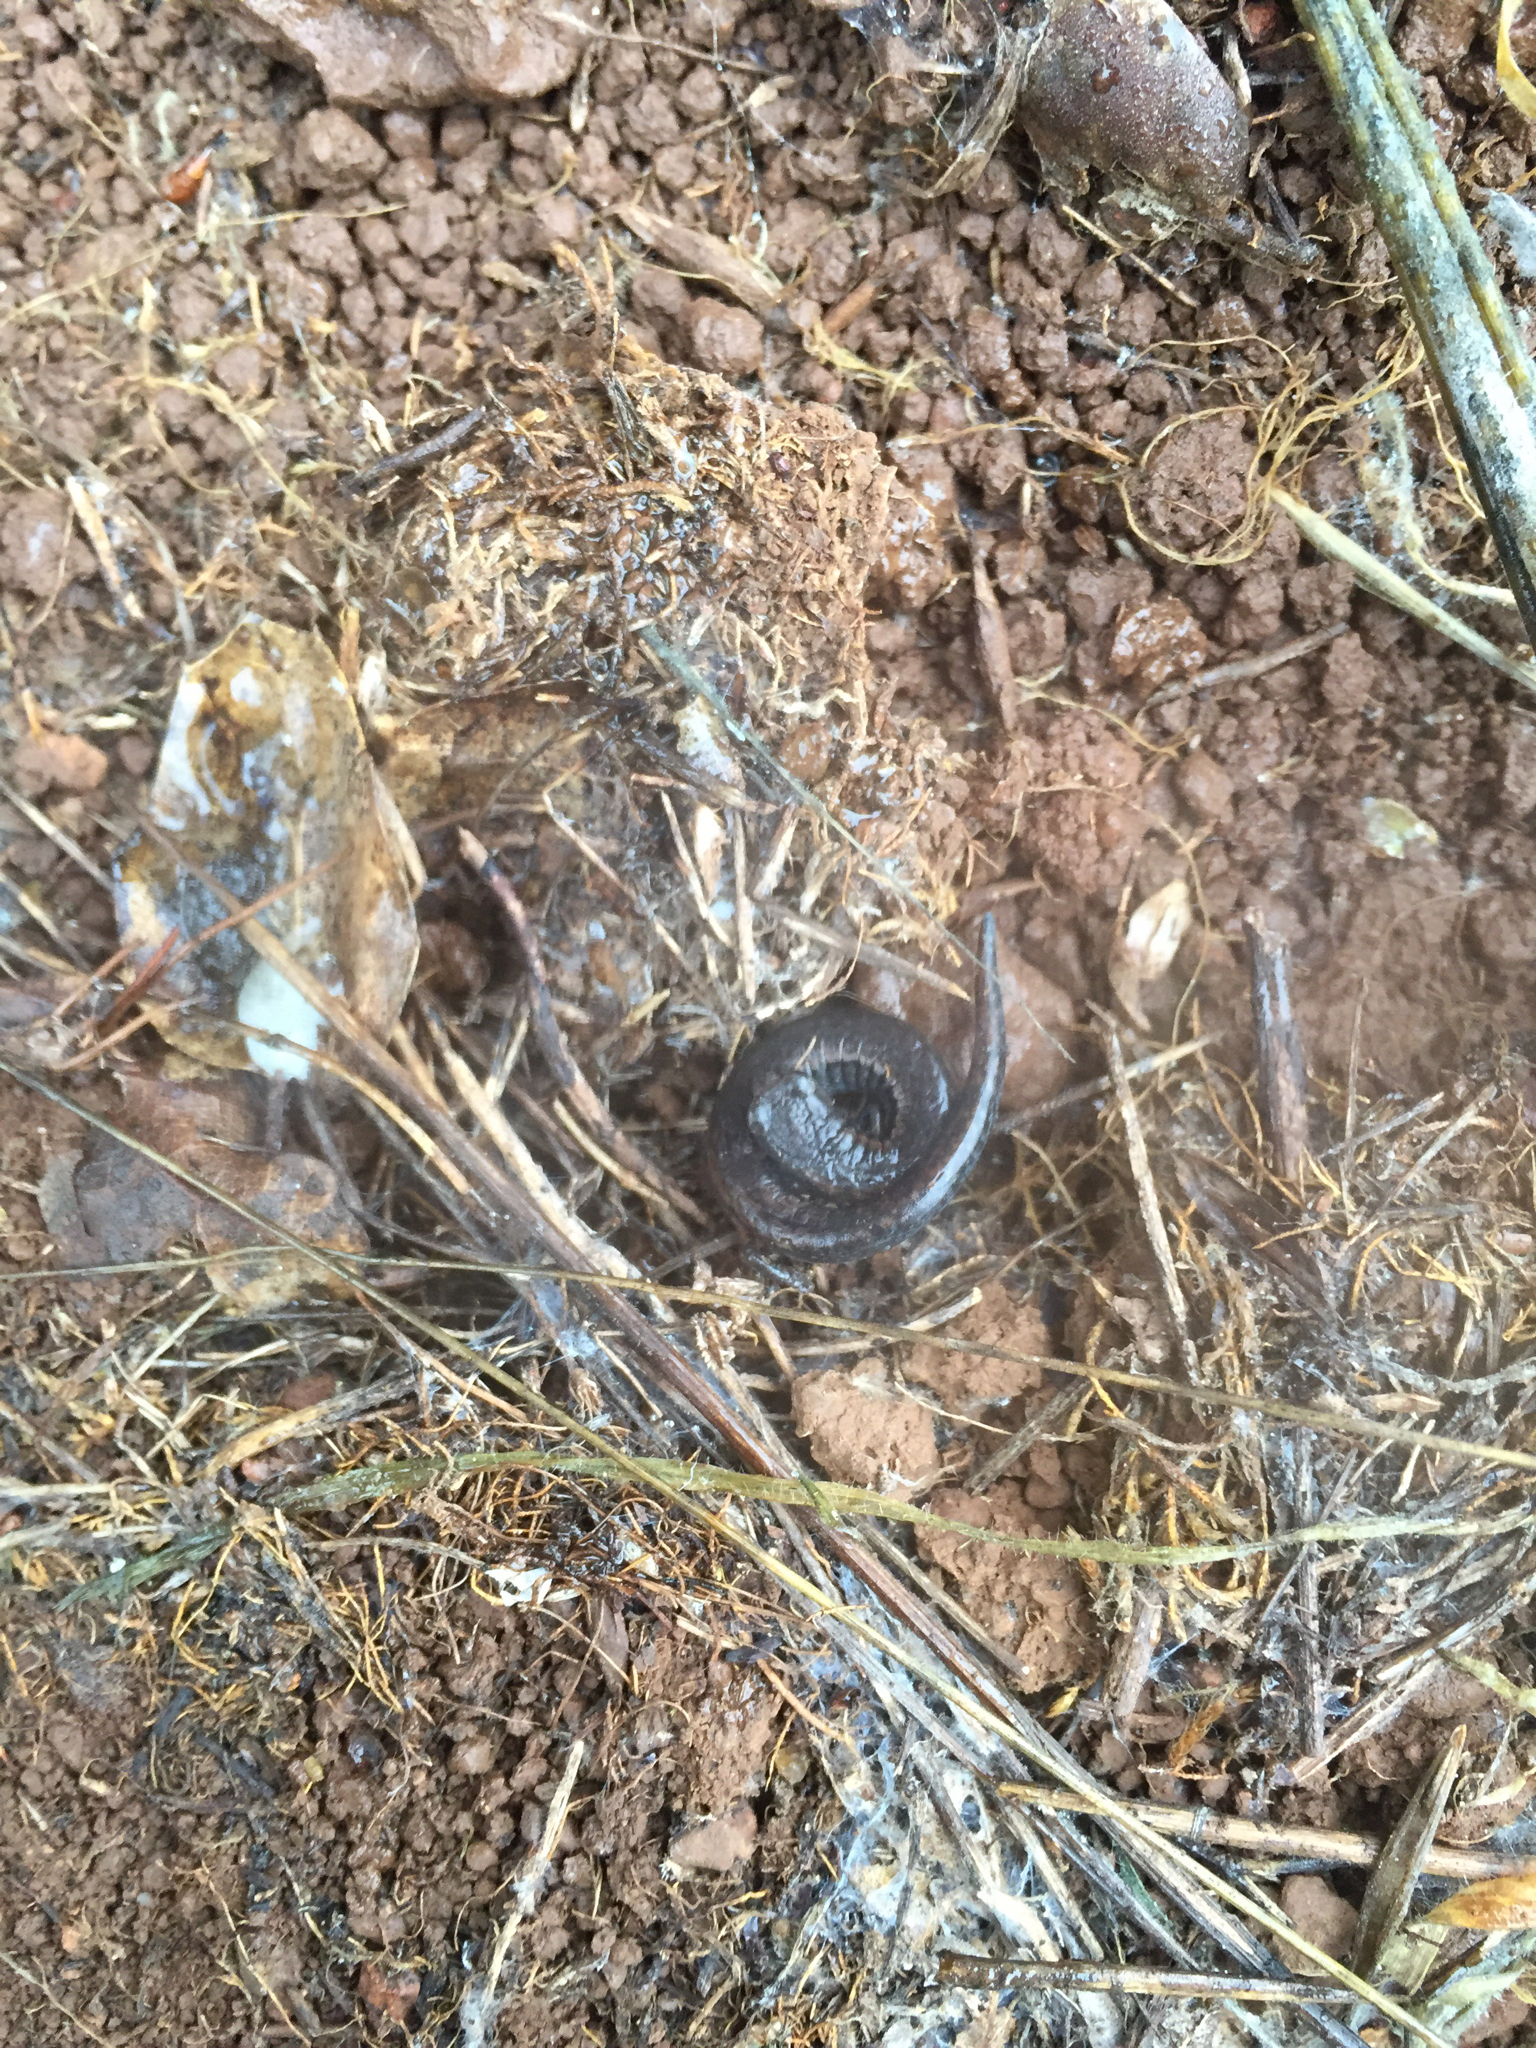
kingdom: Animalia
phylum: Chordata
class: Amphibia
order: Caudata
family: Plethodontidae
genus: Batrachoseps
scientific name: Batrachoseps attenuatus
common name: California slender salamander
